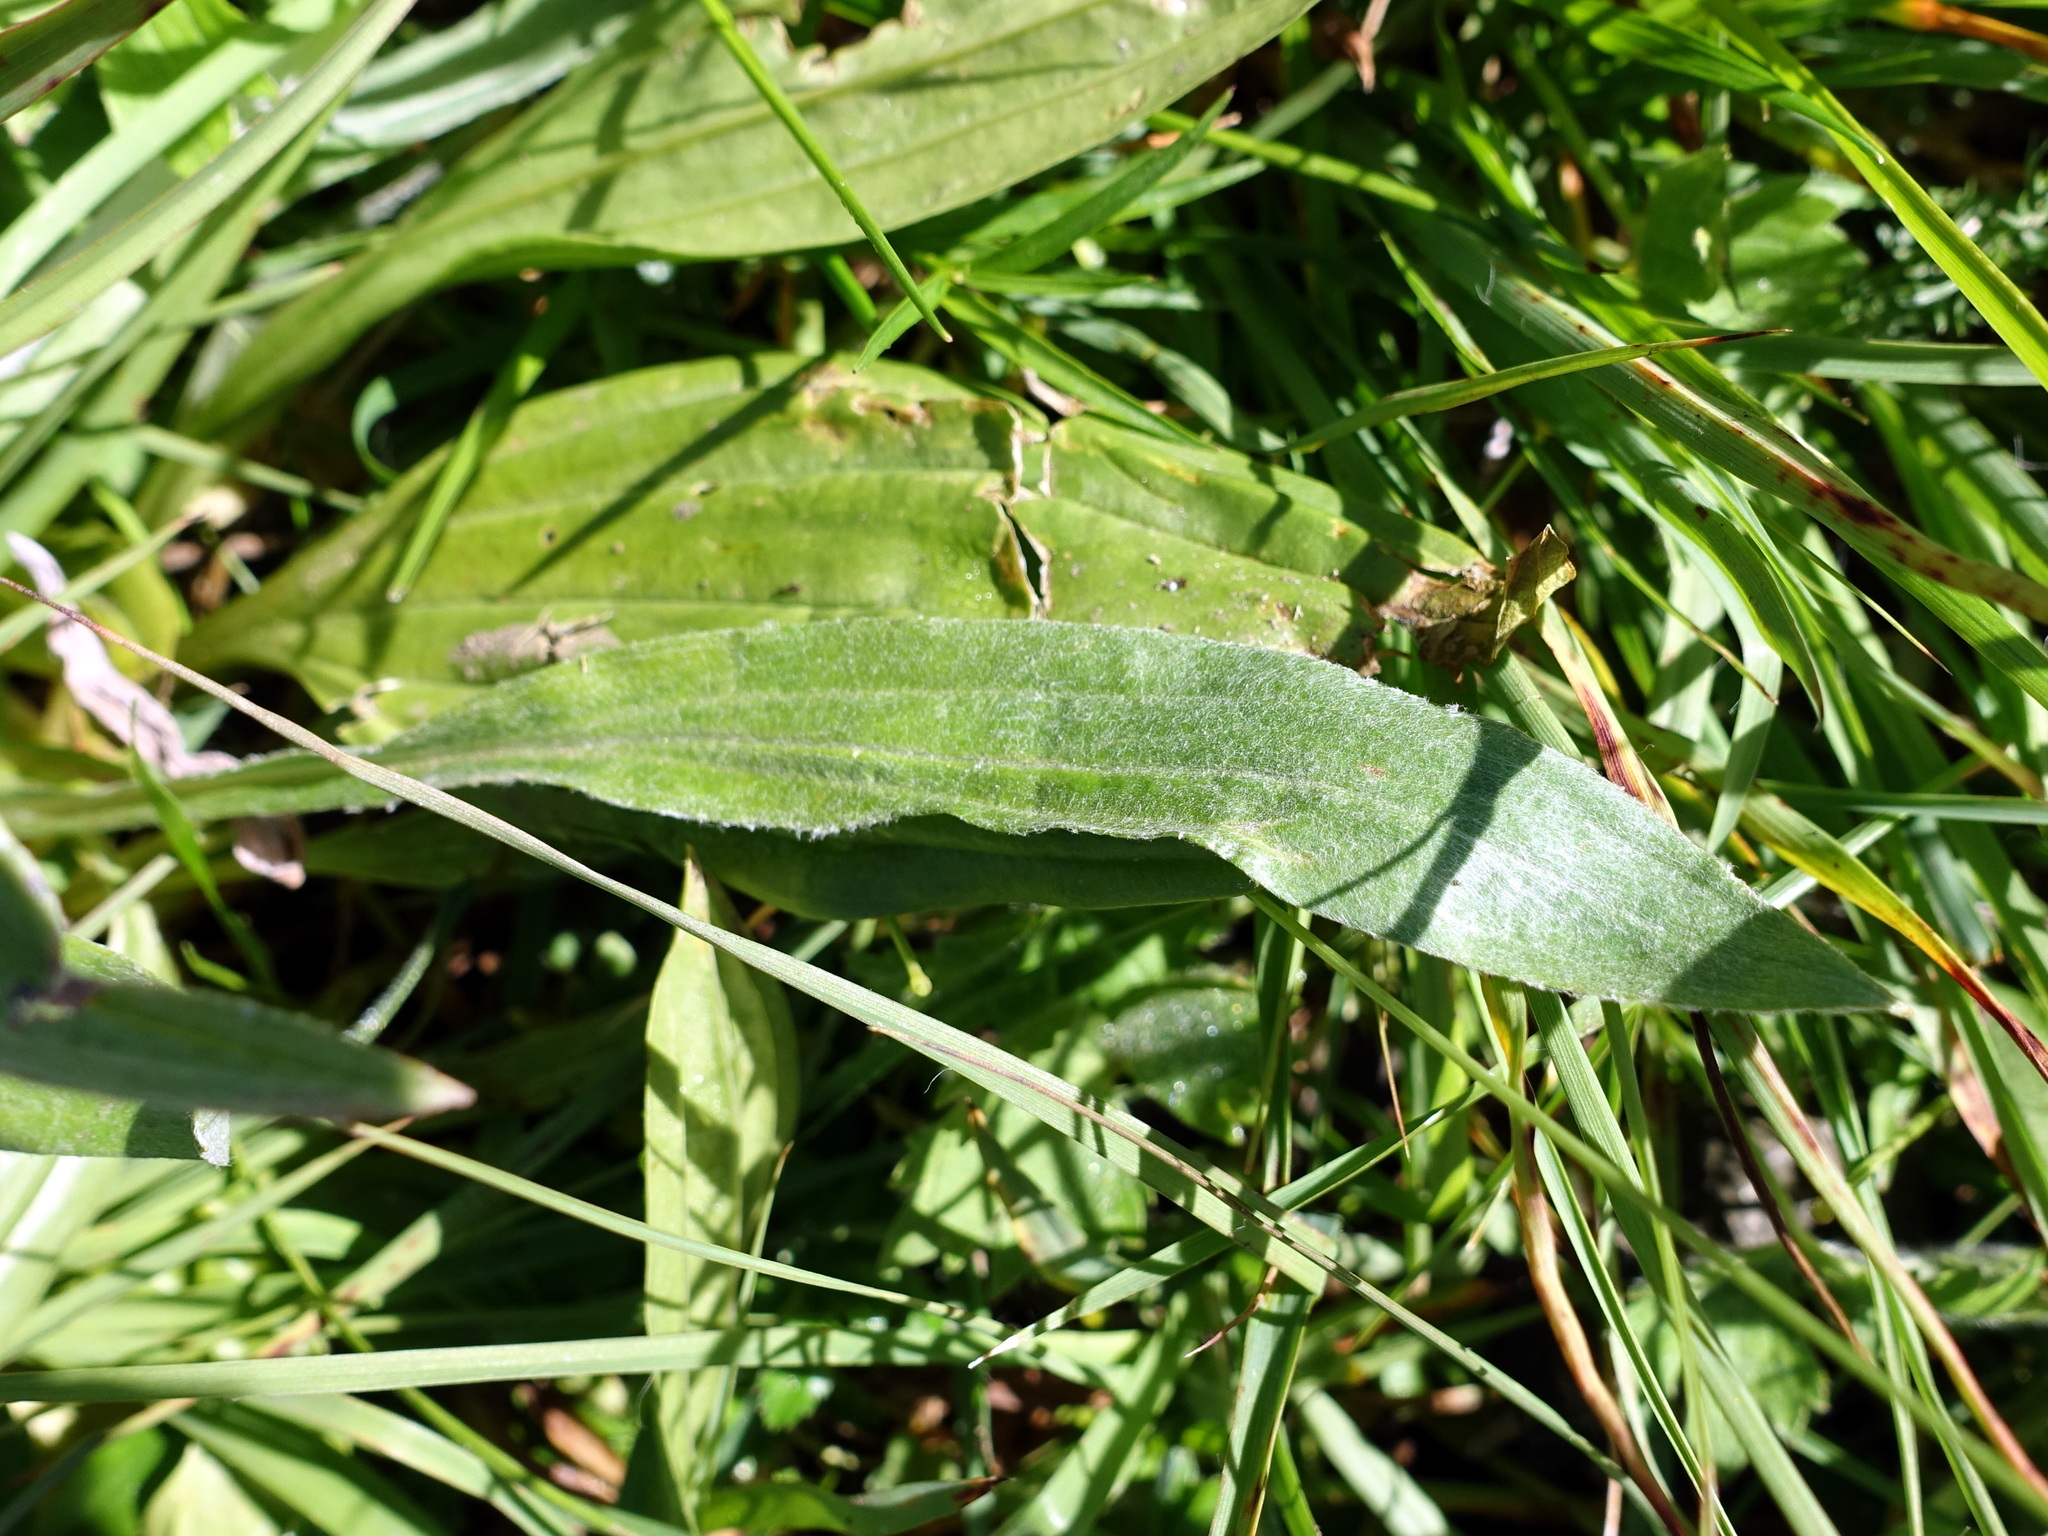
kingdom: Plantae
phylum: Tracheophyta
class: Magnoliopsida
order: Asterales
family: Asteraceae
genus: Omalotheca
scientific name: Omalotheca norvegica
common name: Norwegian arctic-cudweed
